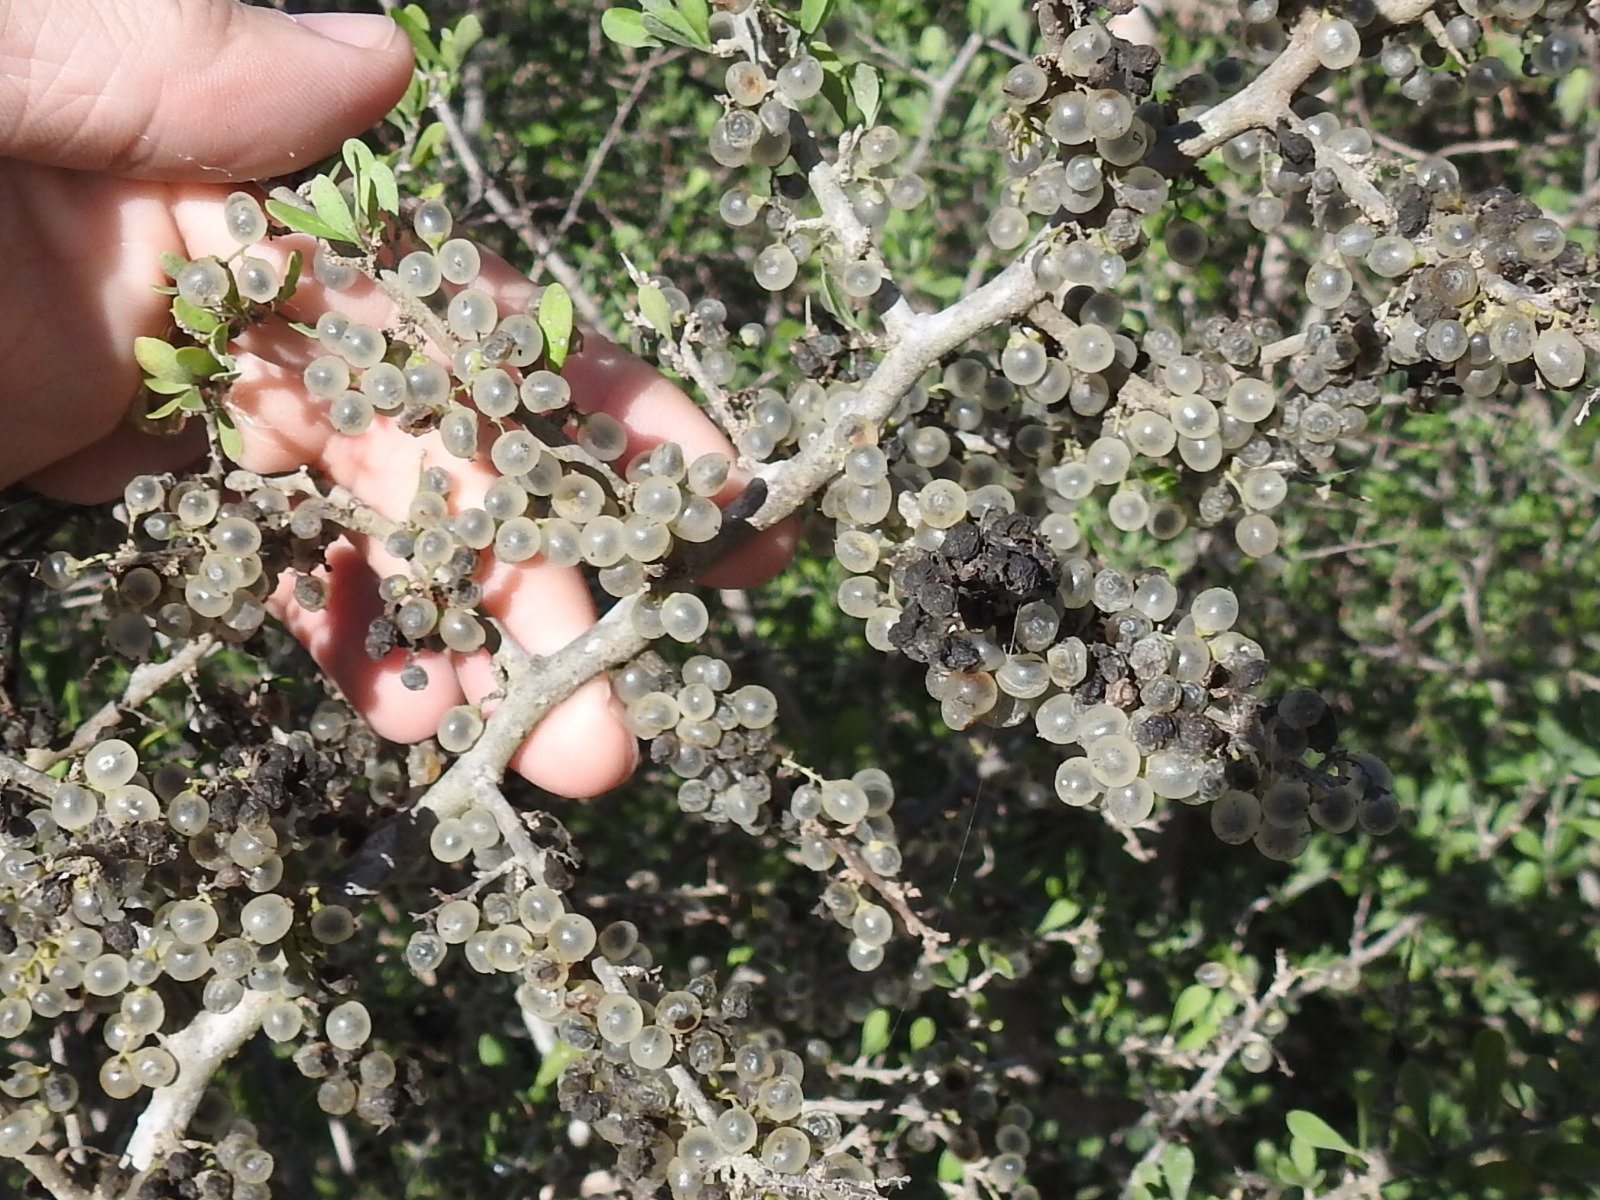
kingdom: Plantae
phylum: Tracheophyta
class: Magnoliopsida
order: Caryophyllales
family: Achatocarpaceae
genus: Phaulothamnus
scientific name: Phaulothamnus spinescens
